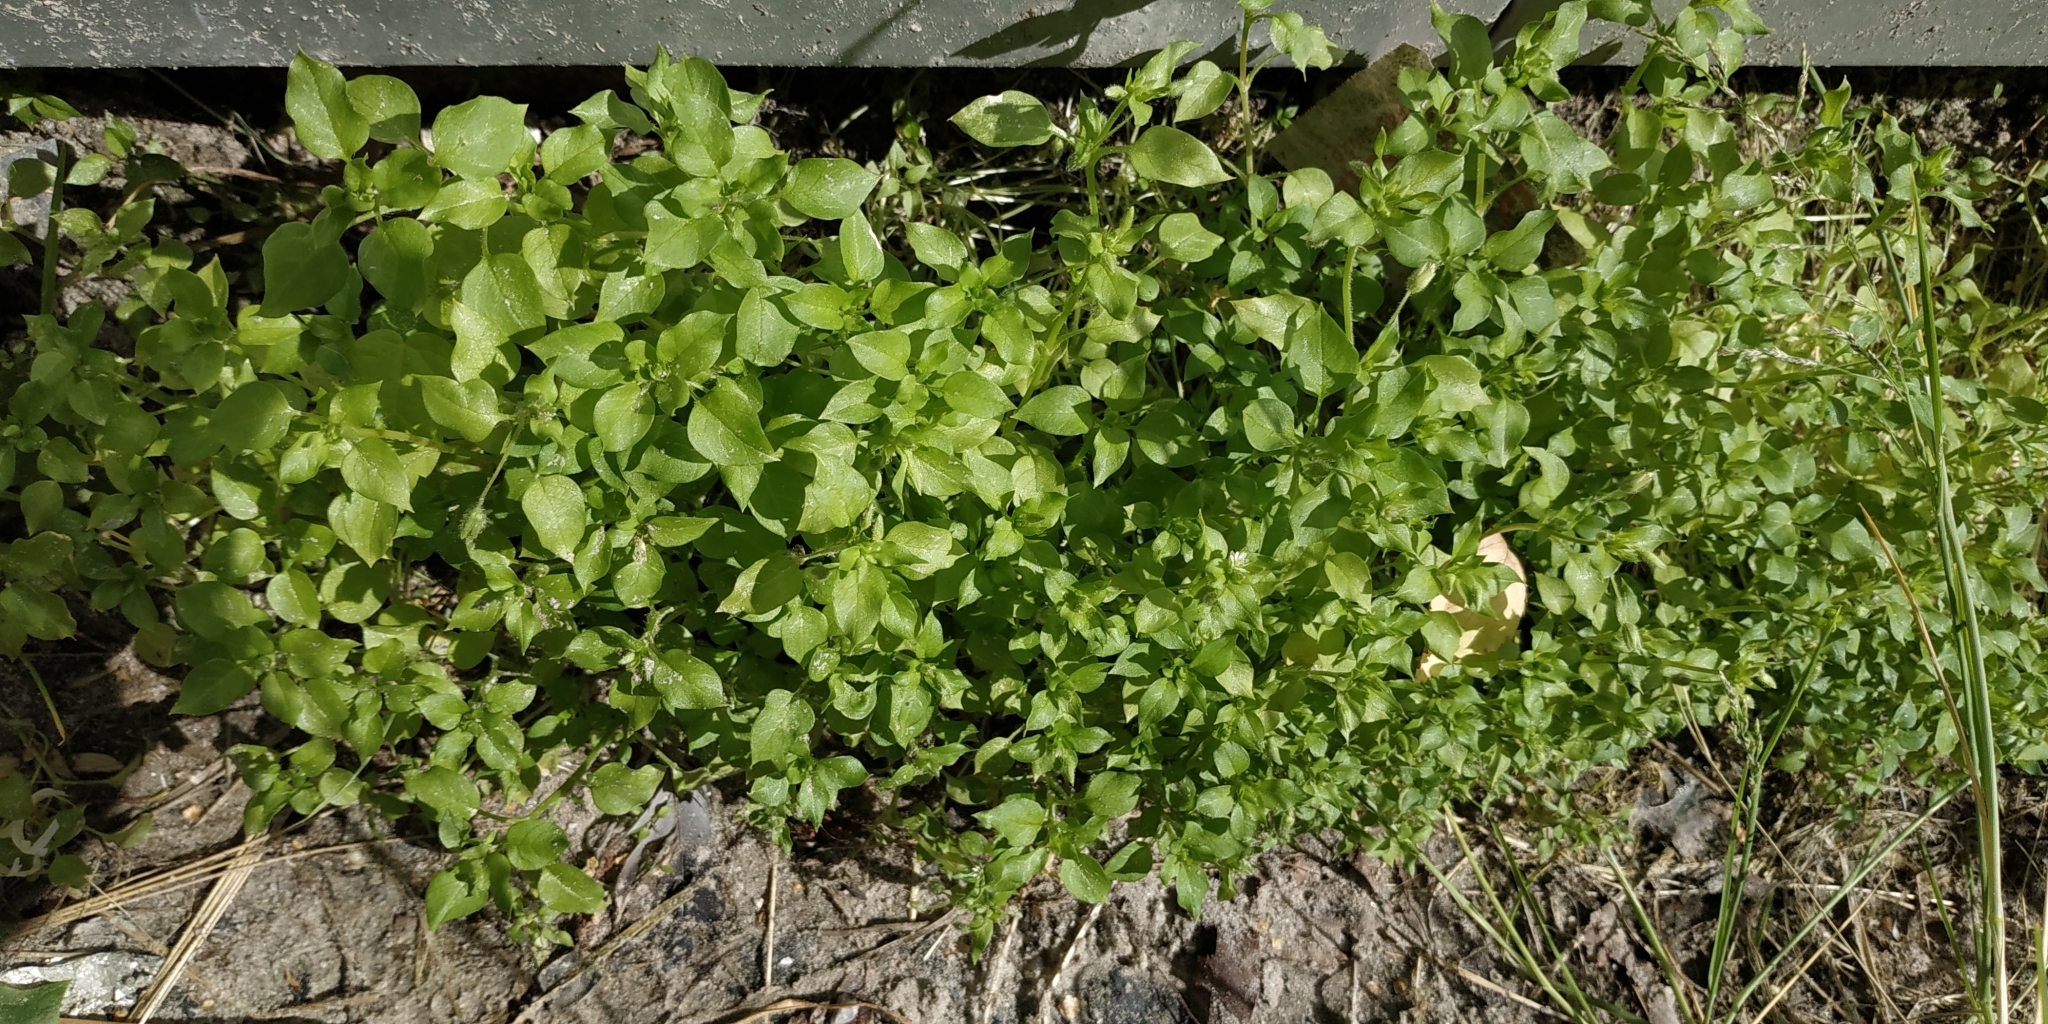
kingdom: Plantae
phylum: Tracheophyta
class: Magnoliopsida
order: Caryophyllales
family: Caryophyllaceae
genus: Stellaria
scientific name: Stellaria media
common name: Common chickweed
